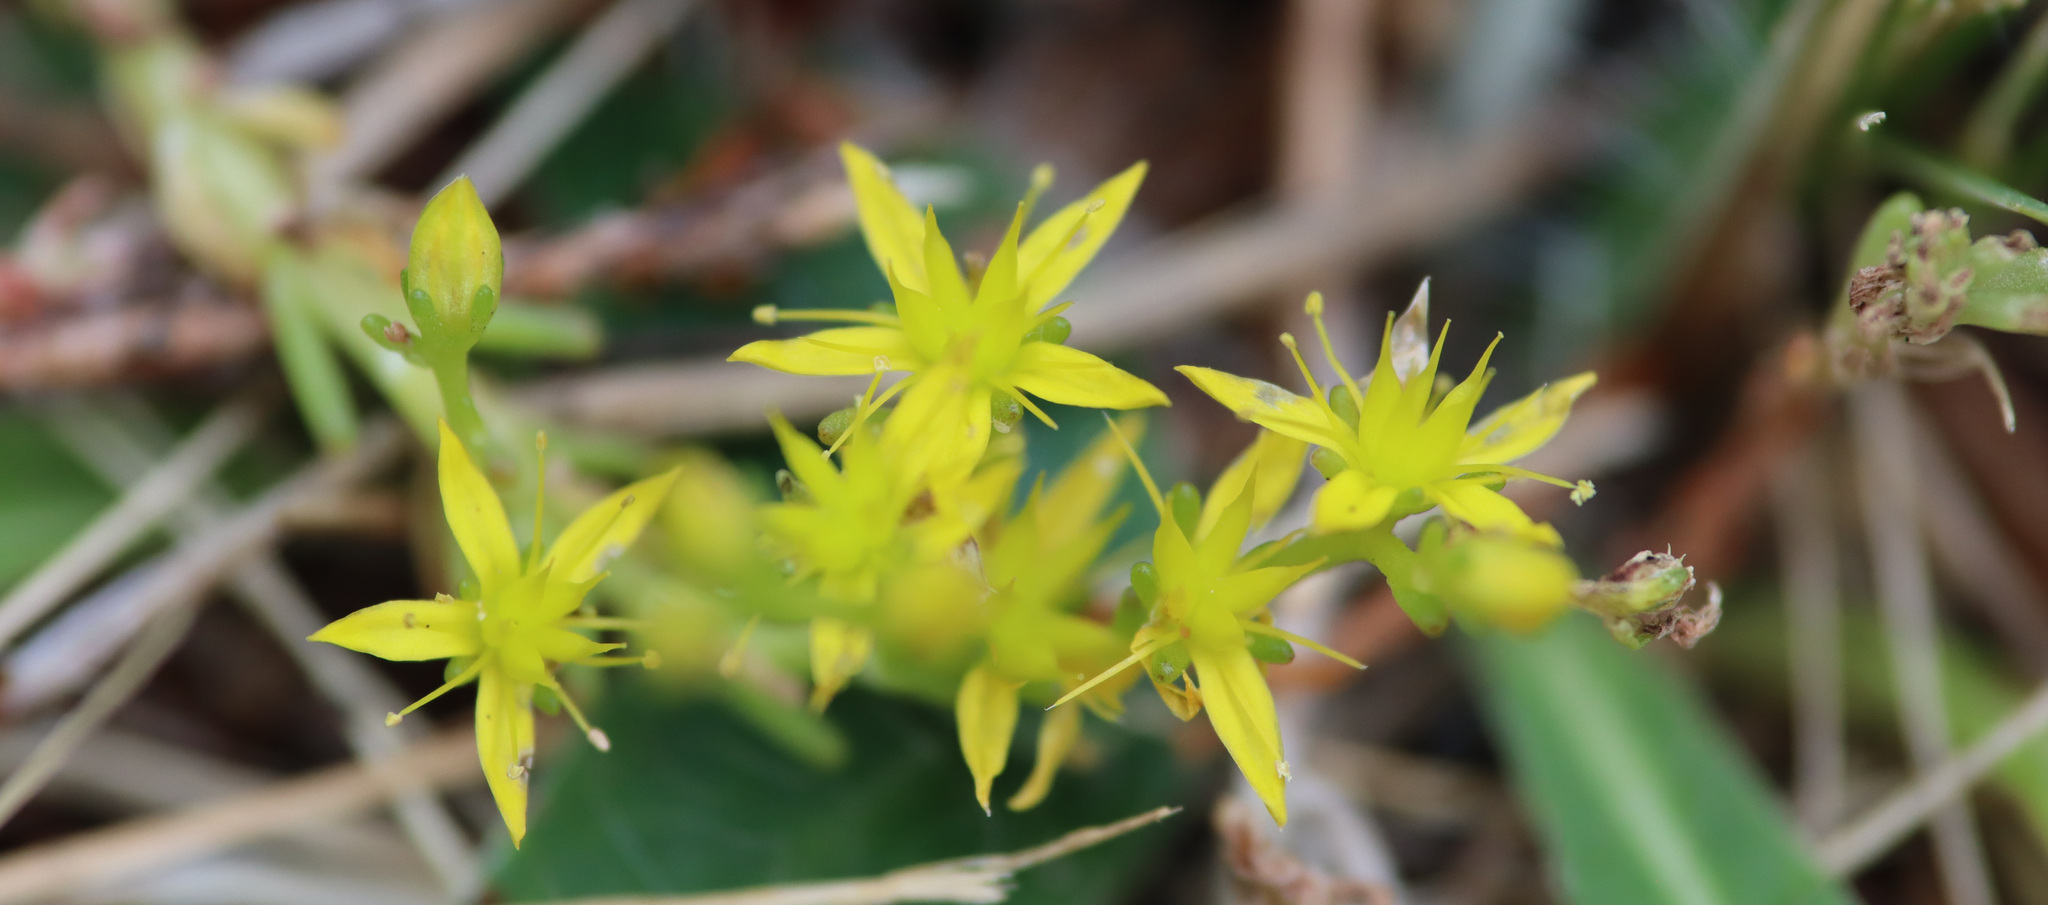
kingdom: Plantae
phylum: Tracheophyta
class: Magnoliopsida
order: Saxifragales
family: Crassulaceae
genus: Sedum
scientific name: Sedum sexangulare
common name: Tasteless stonecrop
